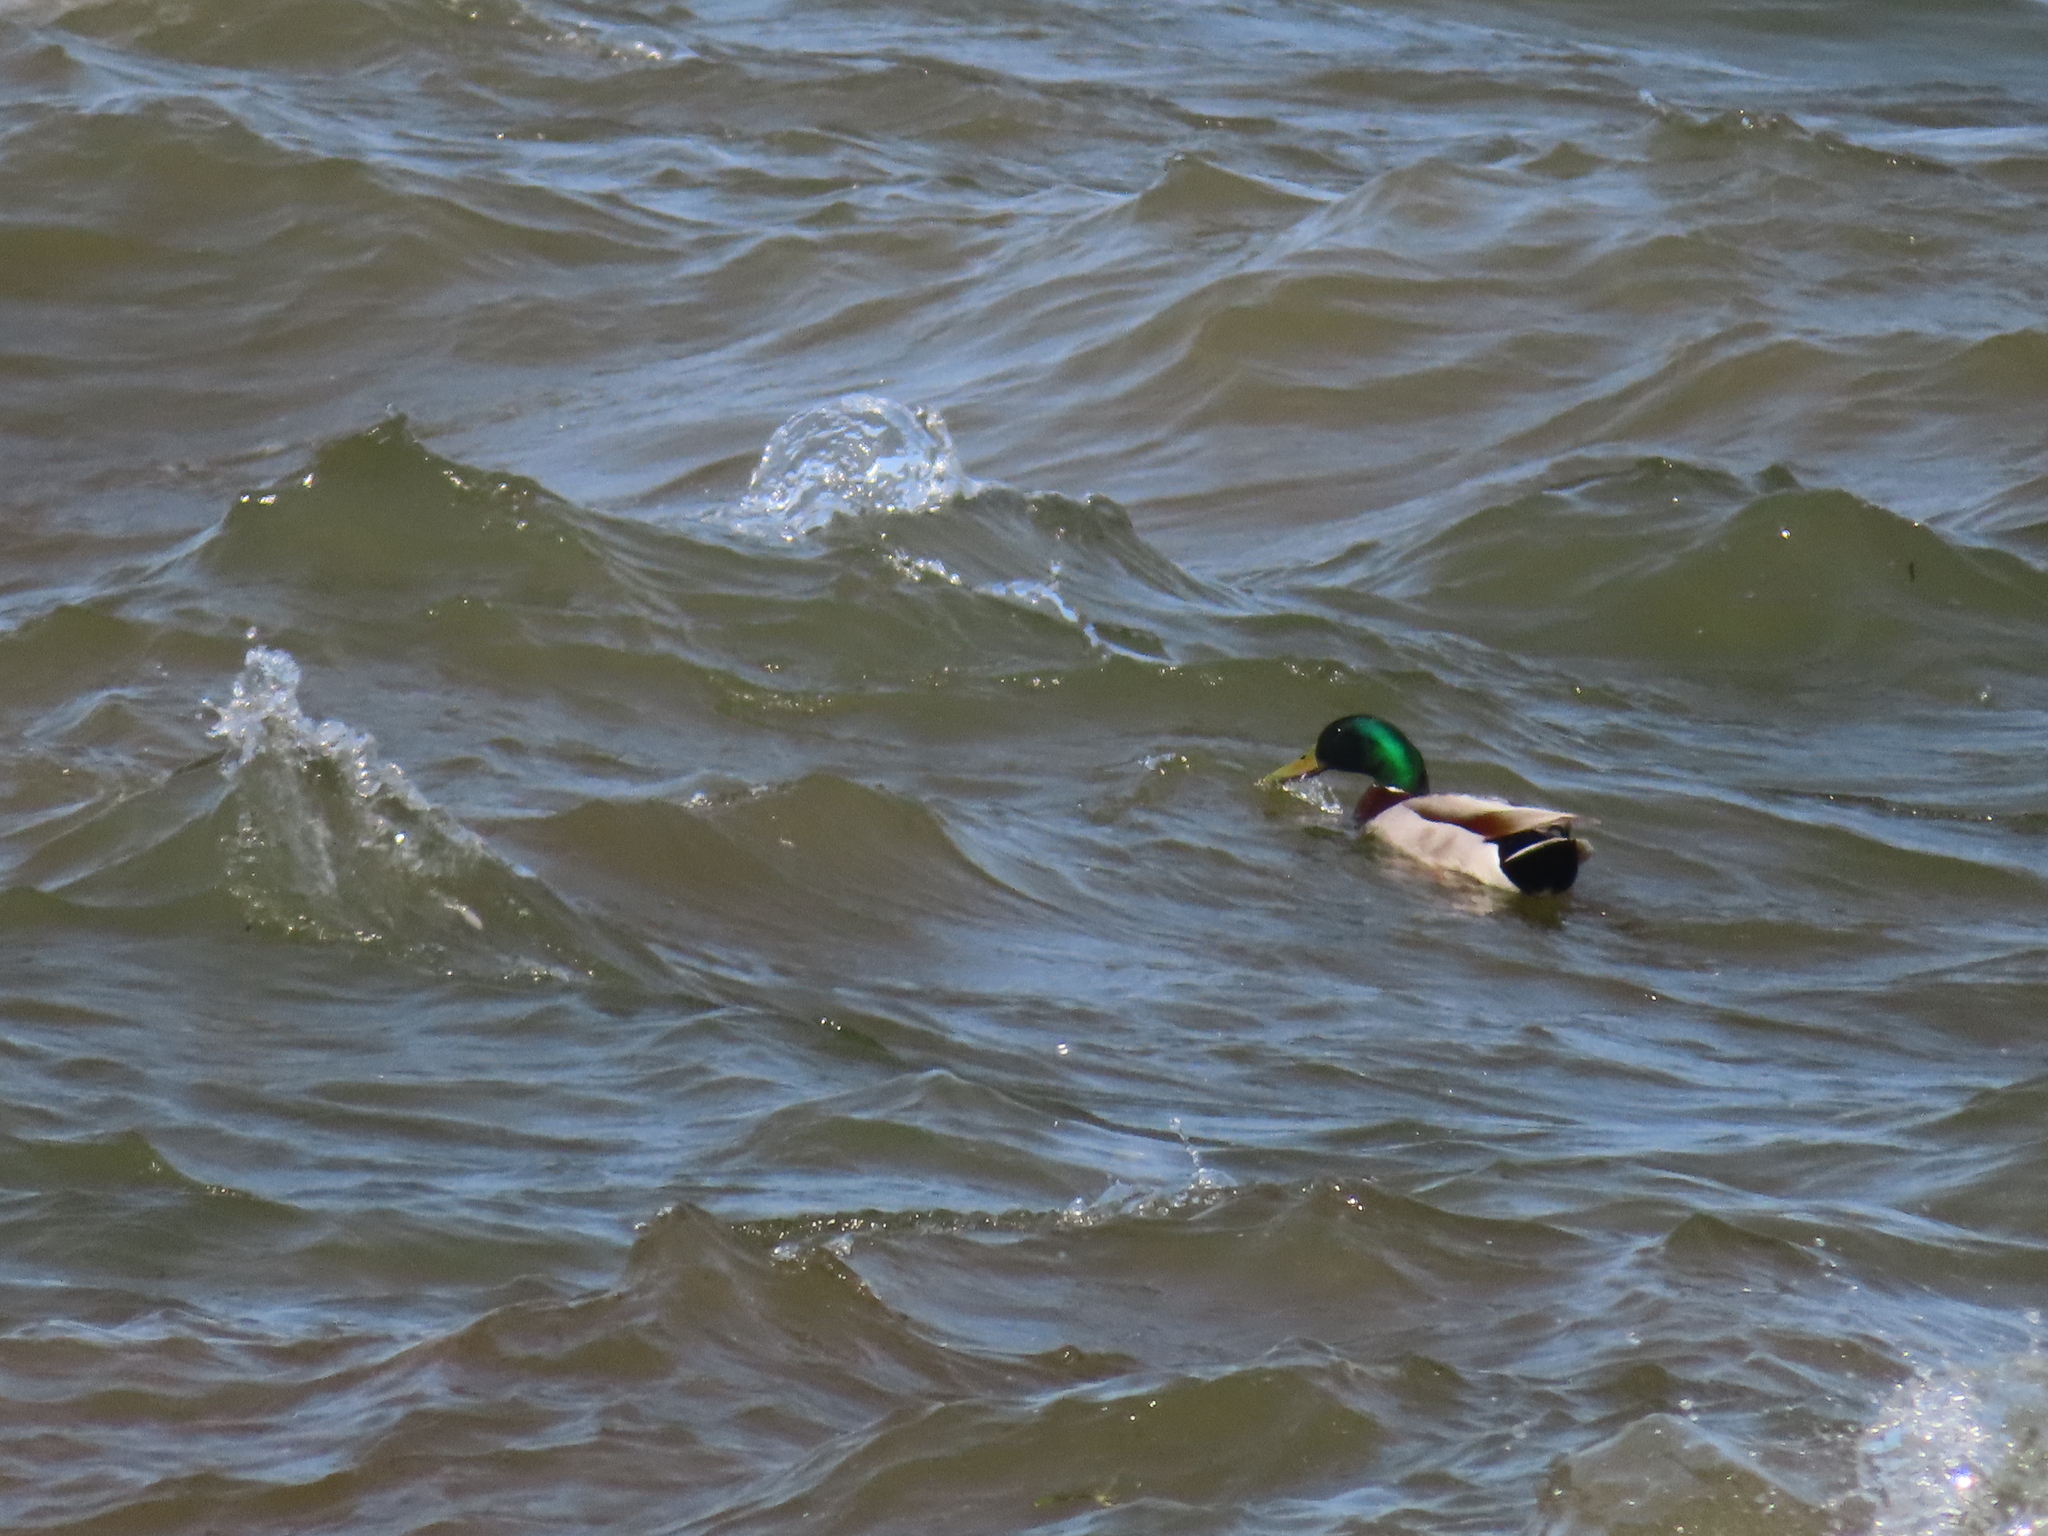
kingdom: Animalia
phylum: Chordata
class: Aves
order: Anseriformes
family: Anatidae
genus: Anas
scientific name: Anas platyrhynchos
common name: Mallard
